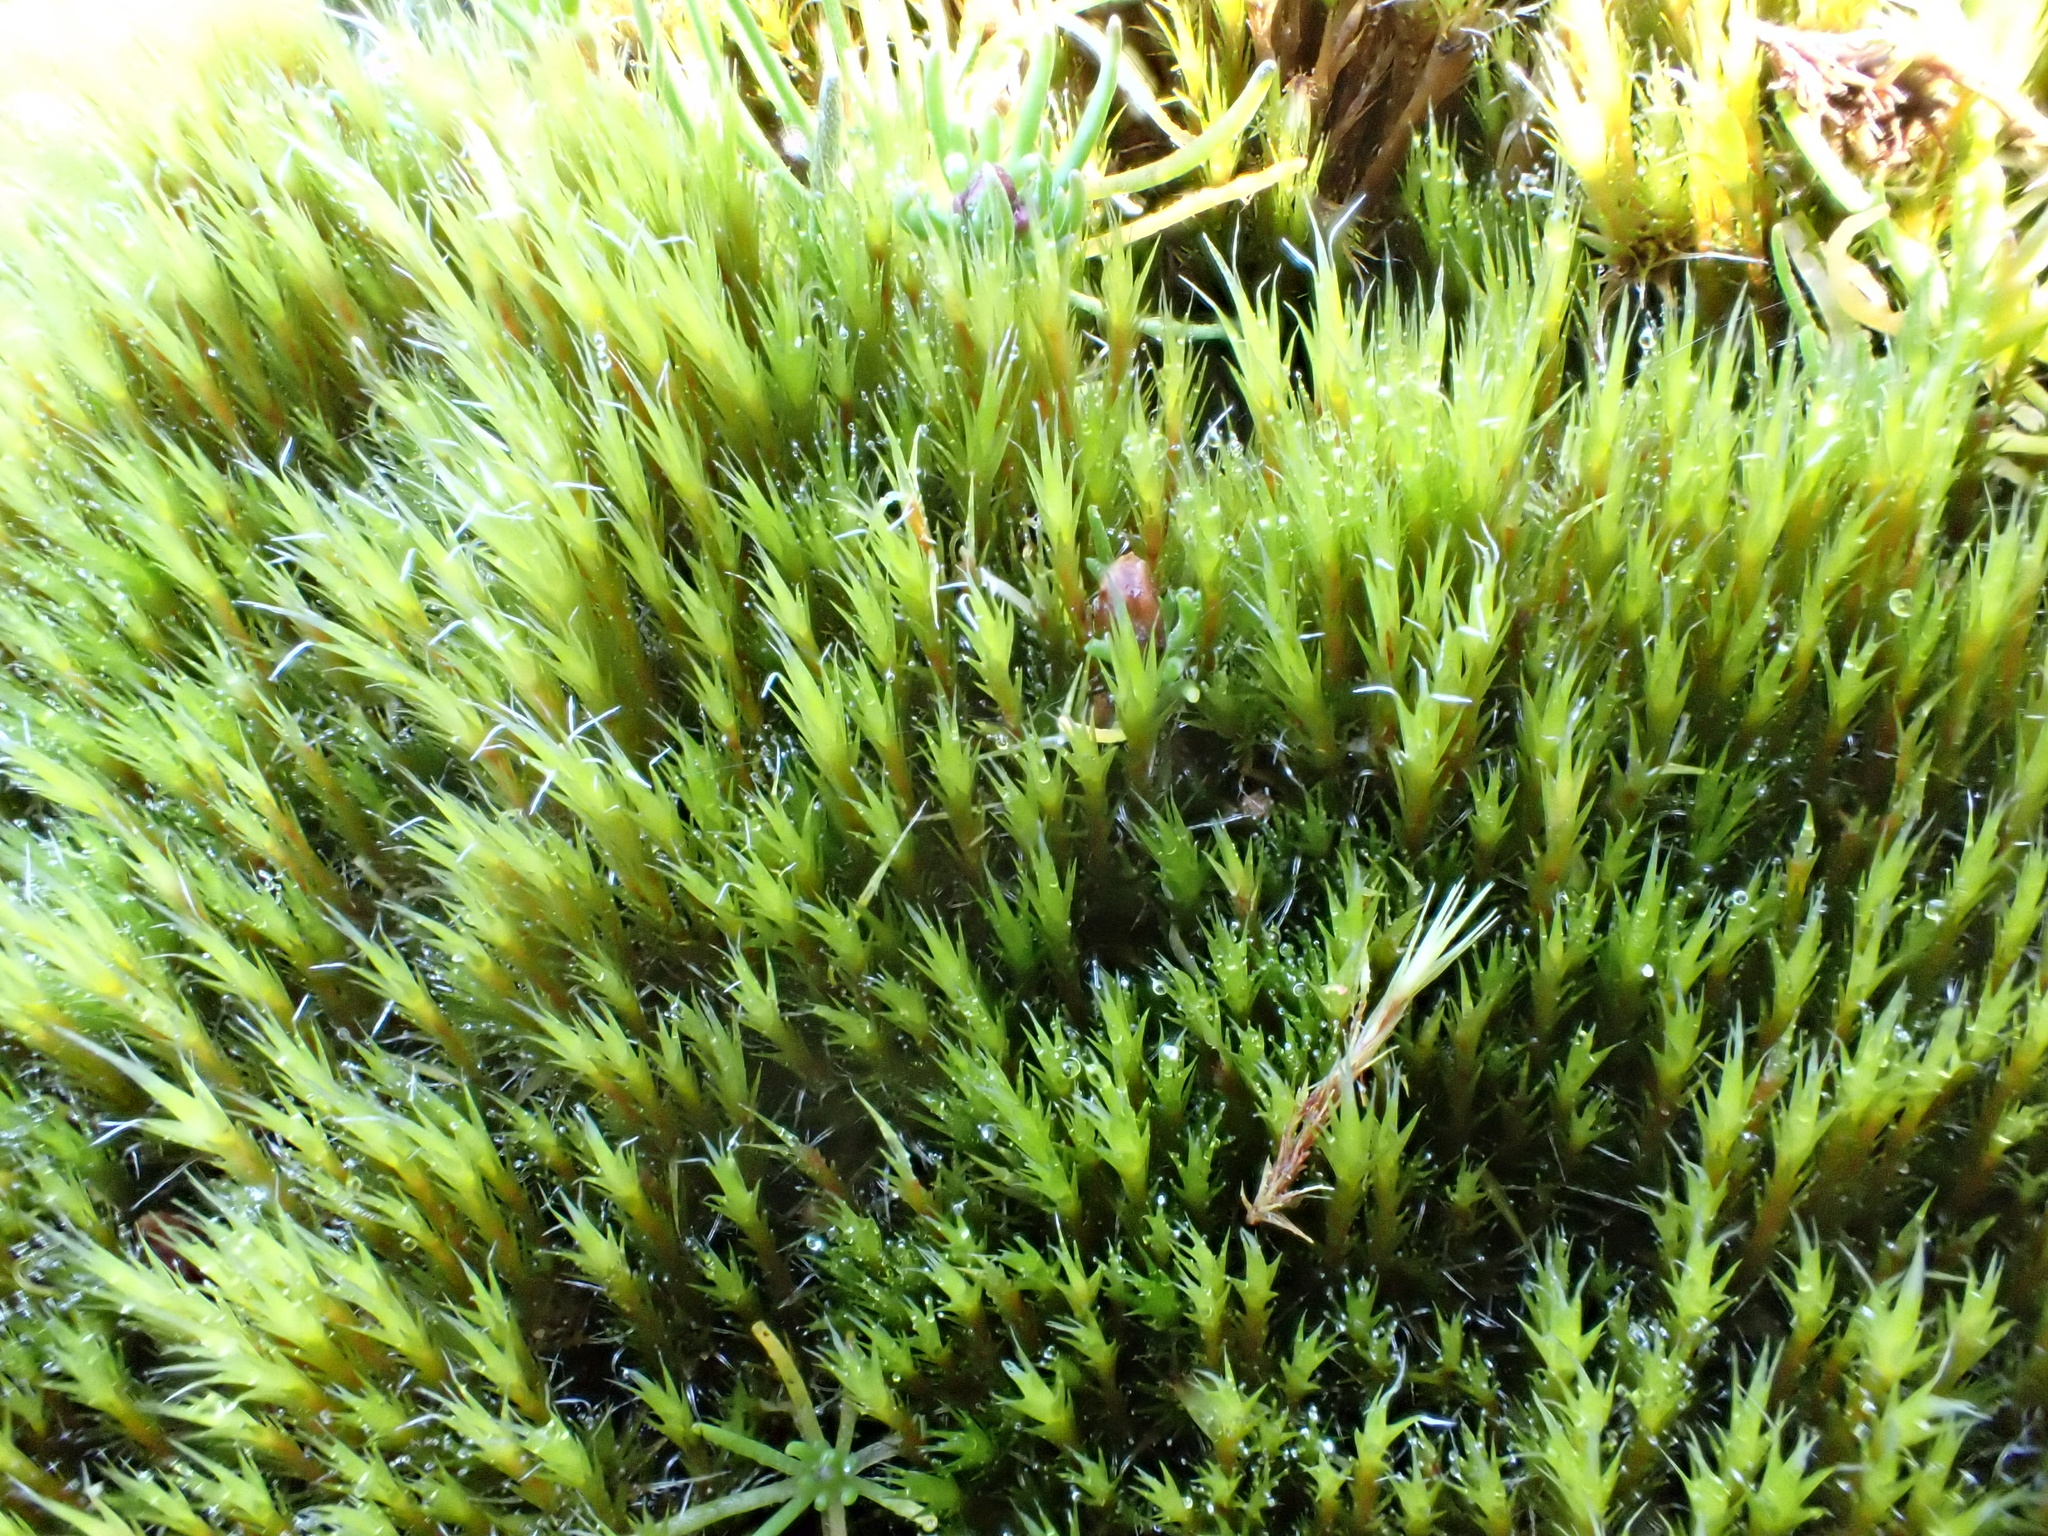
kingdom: Plantae
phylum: Bryophyta
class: Bryopsida
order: Dicranales
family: Leucobryaceae
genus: Campylopus
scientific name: Campylopus introflexus
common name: Heath star moss
